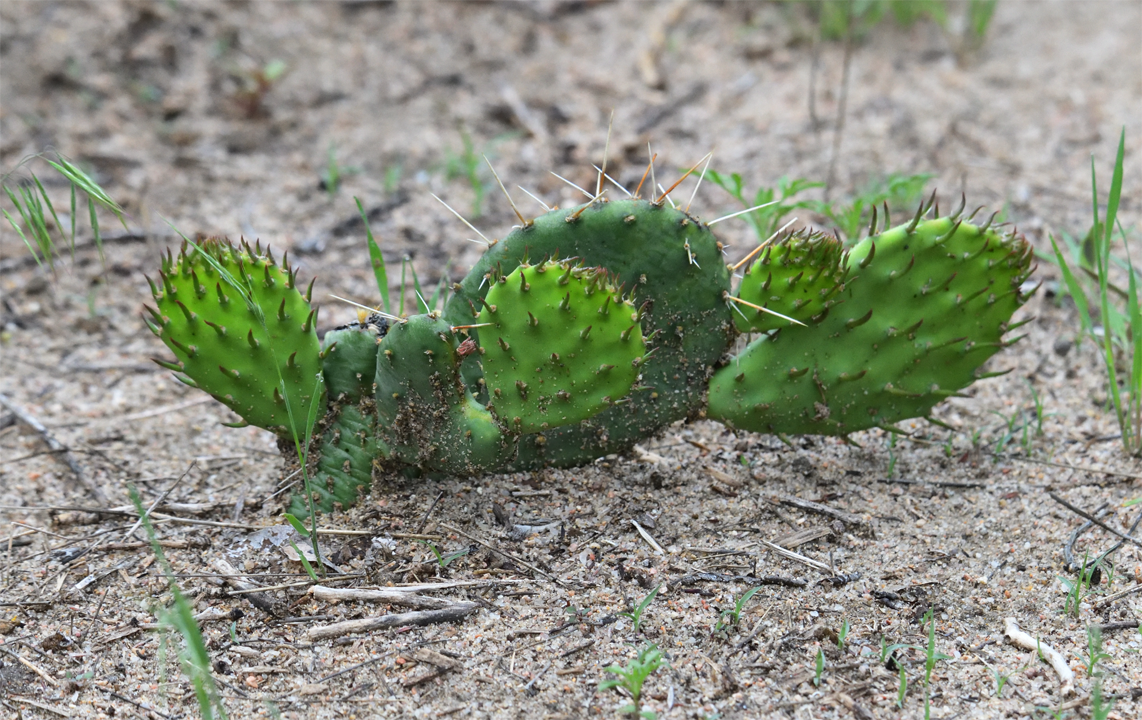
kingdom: Plantae
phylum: Tracheophyta
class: Magnoliopsida
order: Caryophyllales
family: Cactaceae
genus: Opuntia
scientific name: Opuntia macrorhiza
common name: Grassland pricklypear
